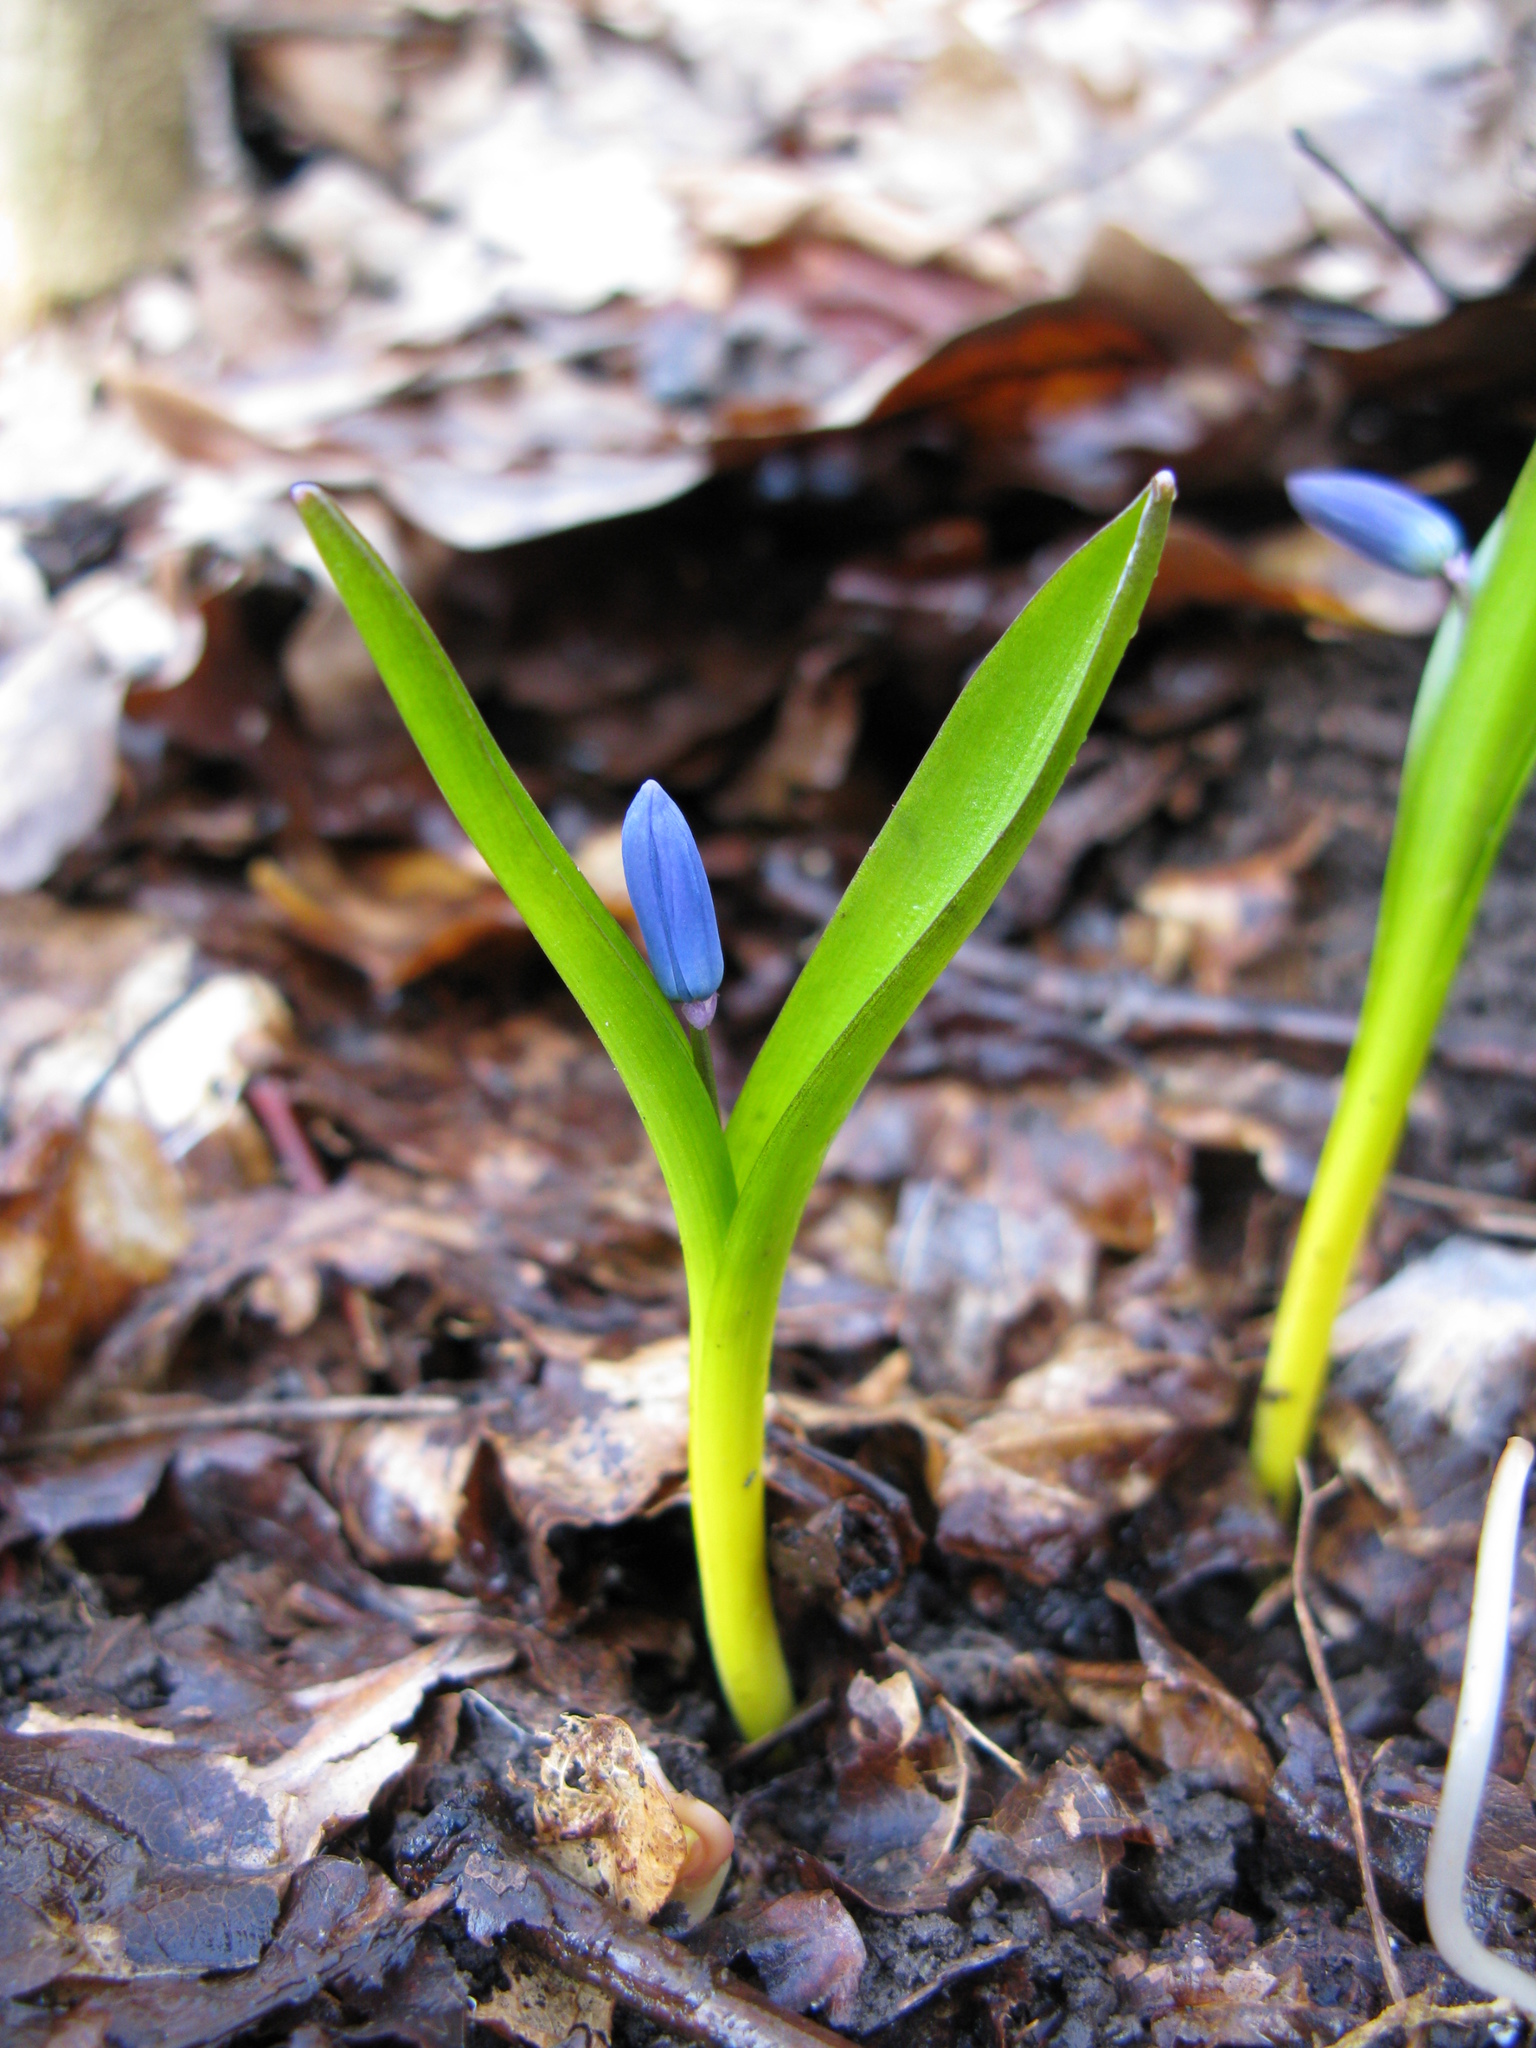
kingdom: Plantae
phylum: Tracheophyta
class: Liliopsida
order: Asparagales
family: Asparagaceae
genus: Scilla
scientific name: Scilla siberica
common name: Siberian squill
